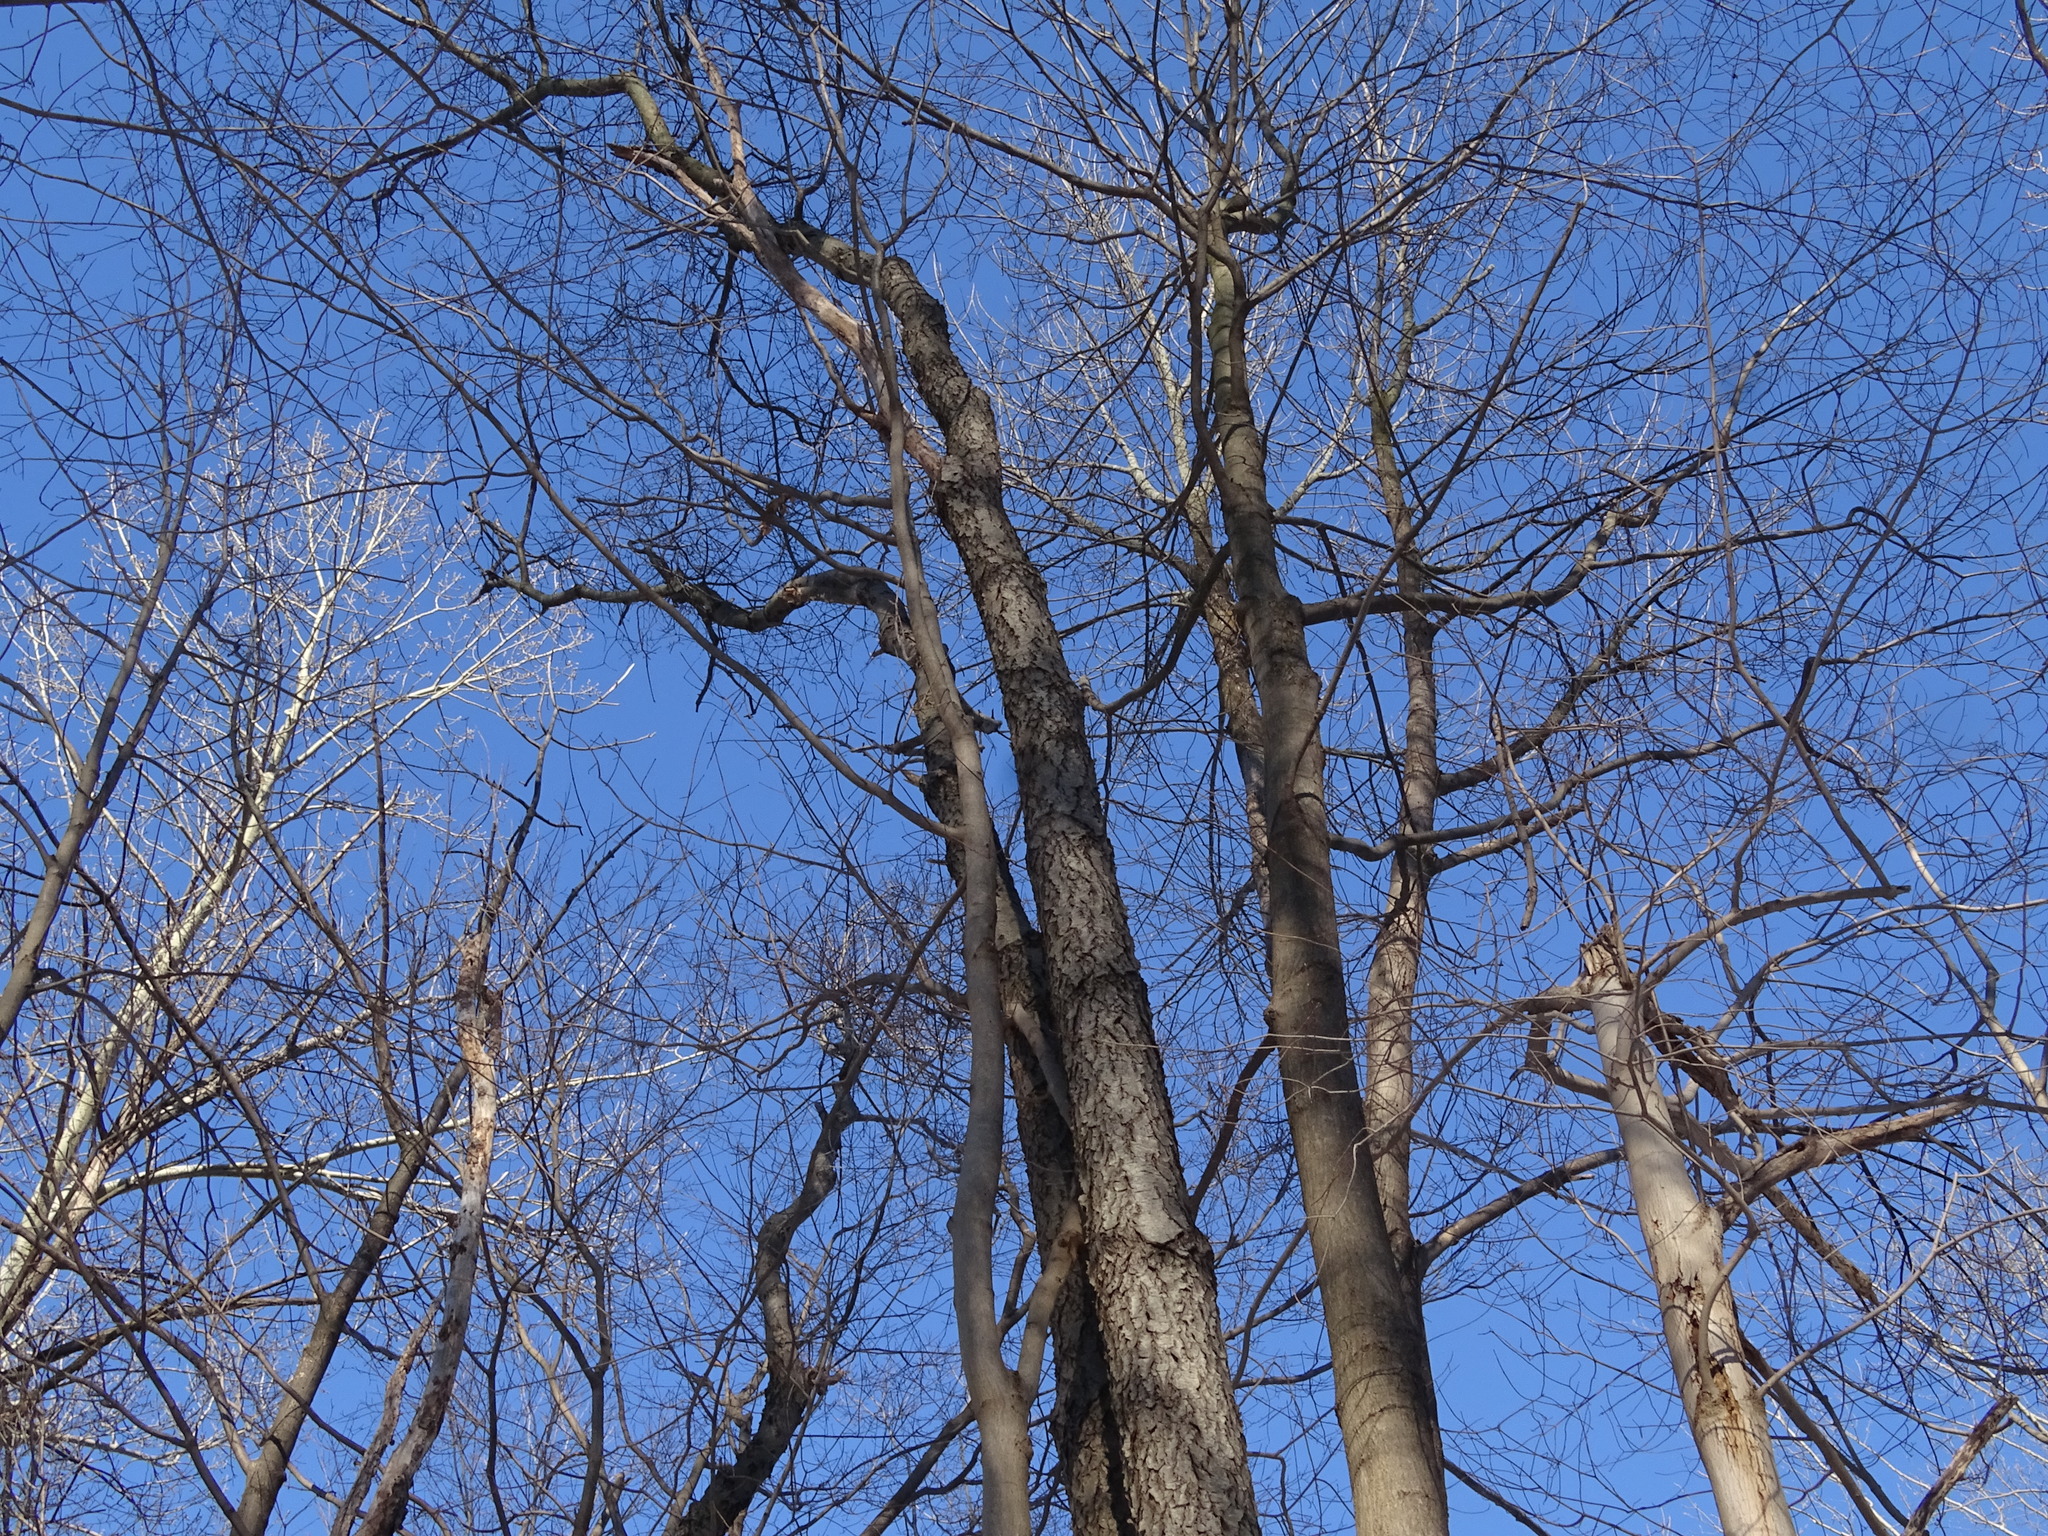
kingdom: Plantae
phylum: Tracheophyta
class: Magnoliopsida
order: Rosales
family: Rosaceae
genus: Prunus
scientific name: Prunus serotina
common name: Black cherry
